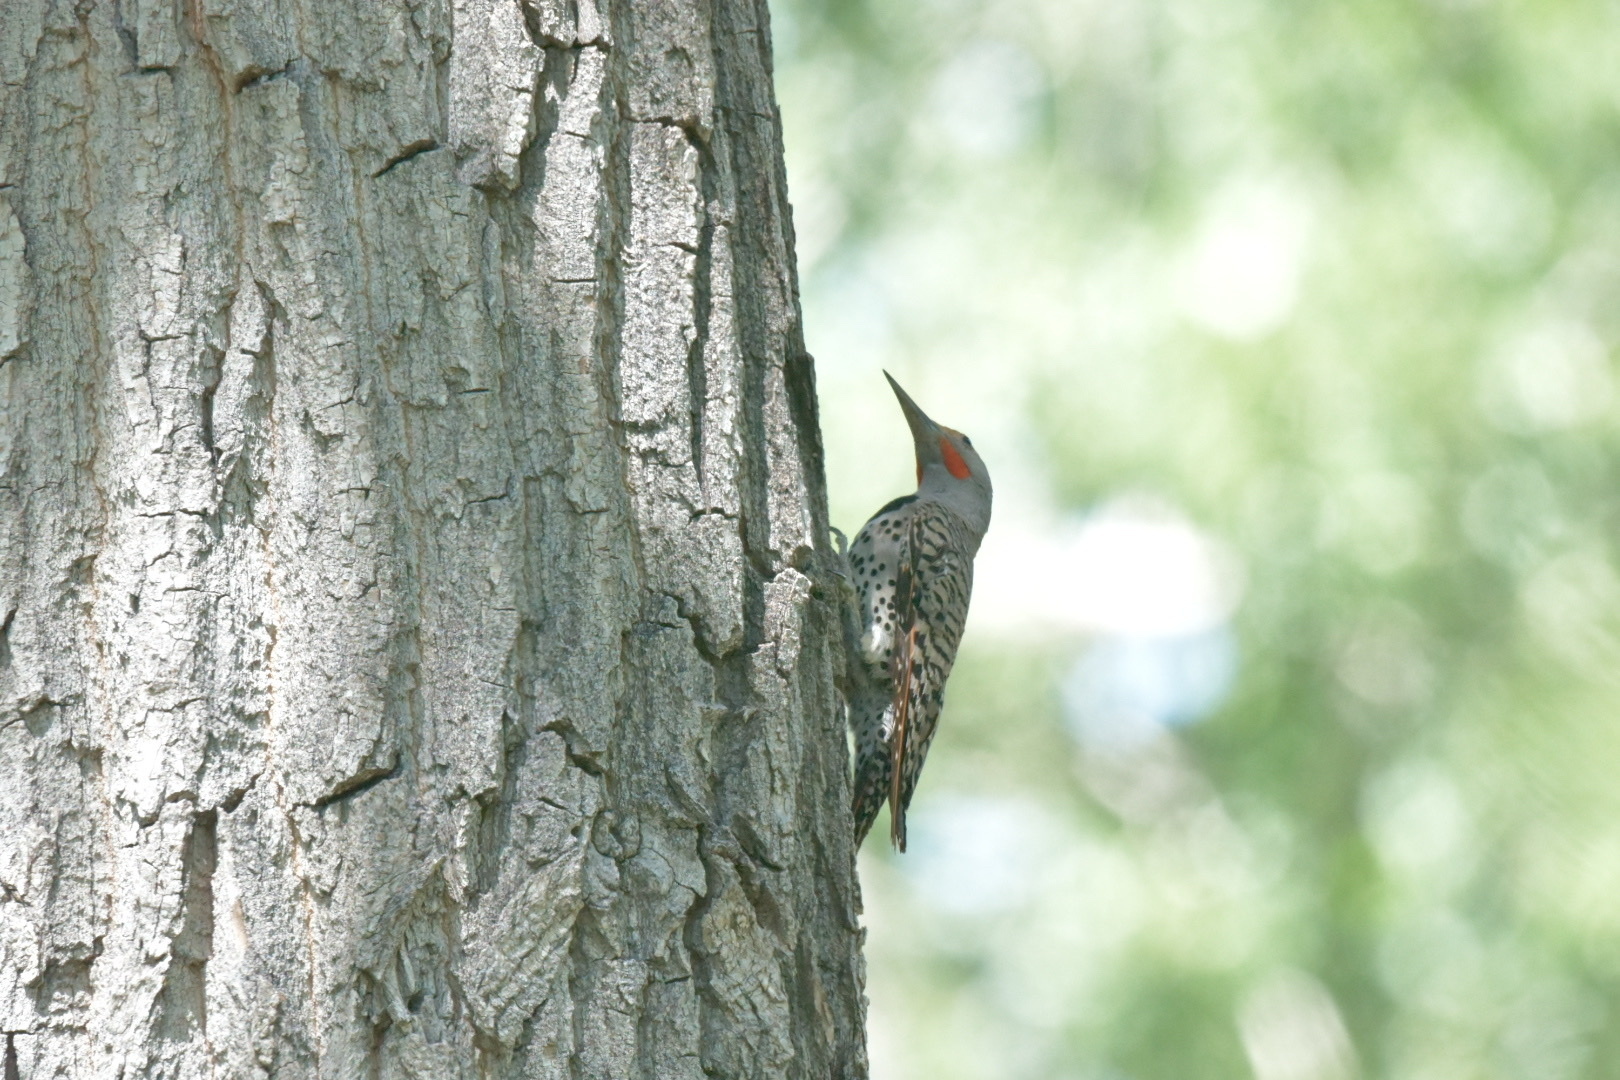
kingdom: Animalia
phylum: Chordata
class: Aves
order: Piciformes
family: Picidae
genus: Colaptes
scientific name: Colaptes auratus
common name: Northern flicker
